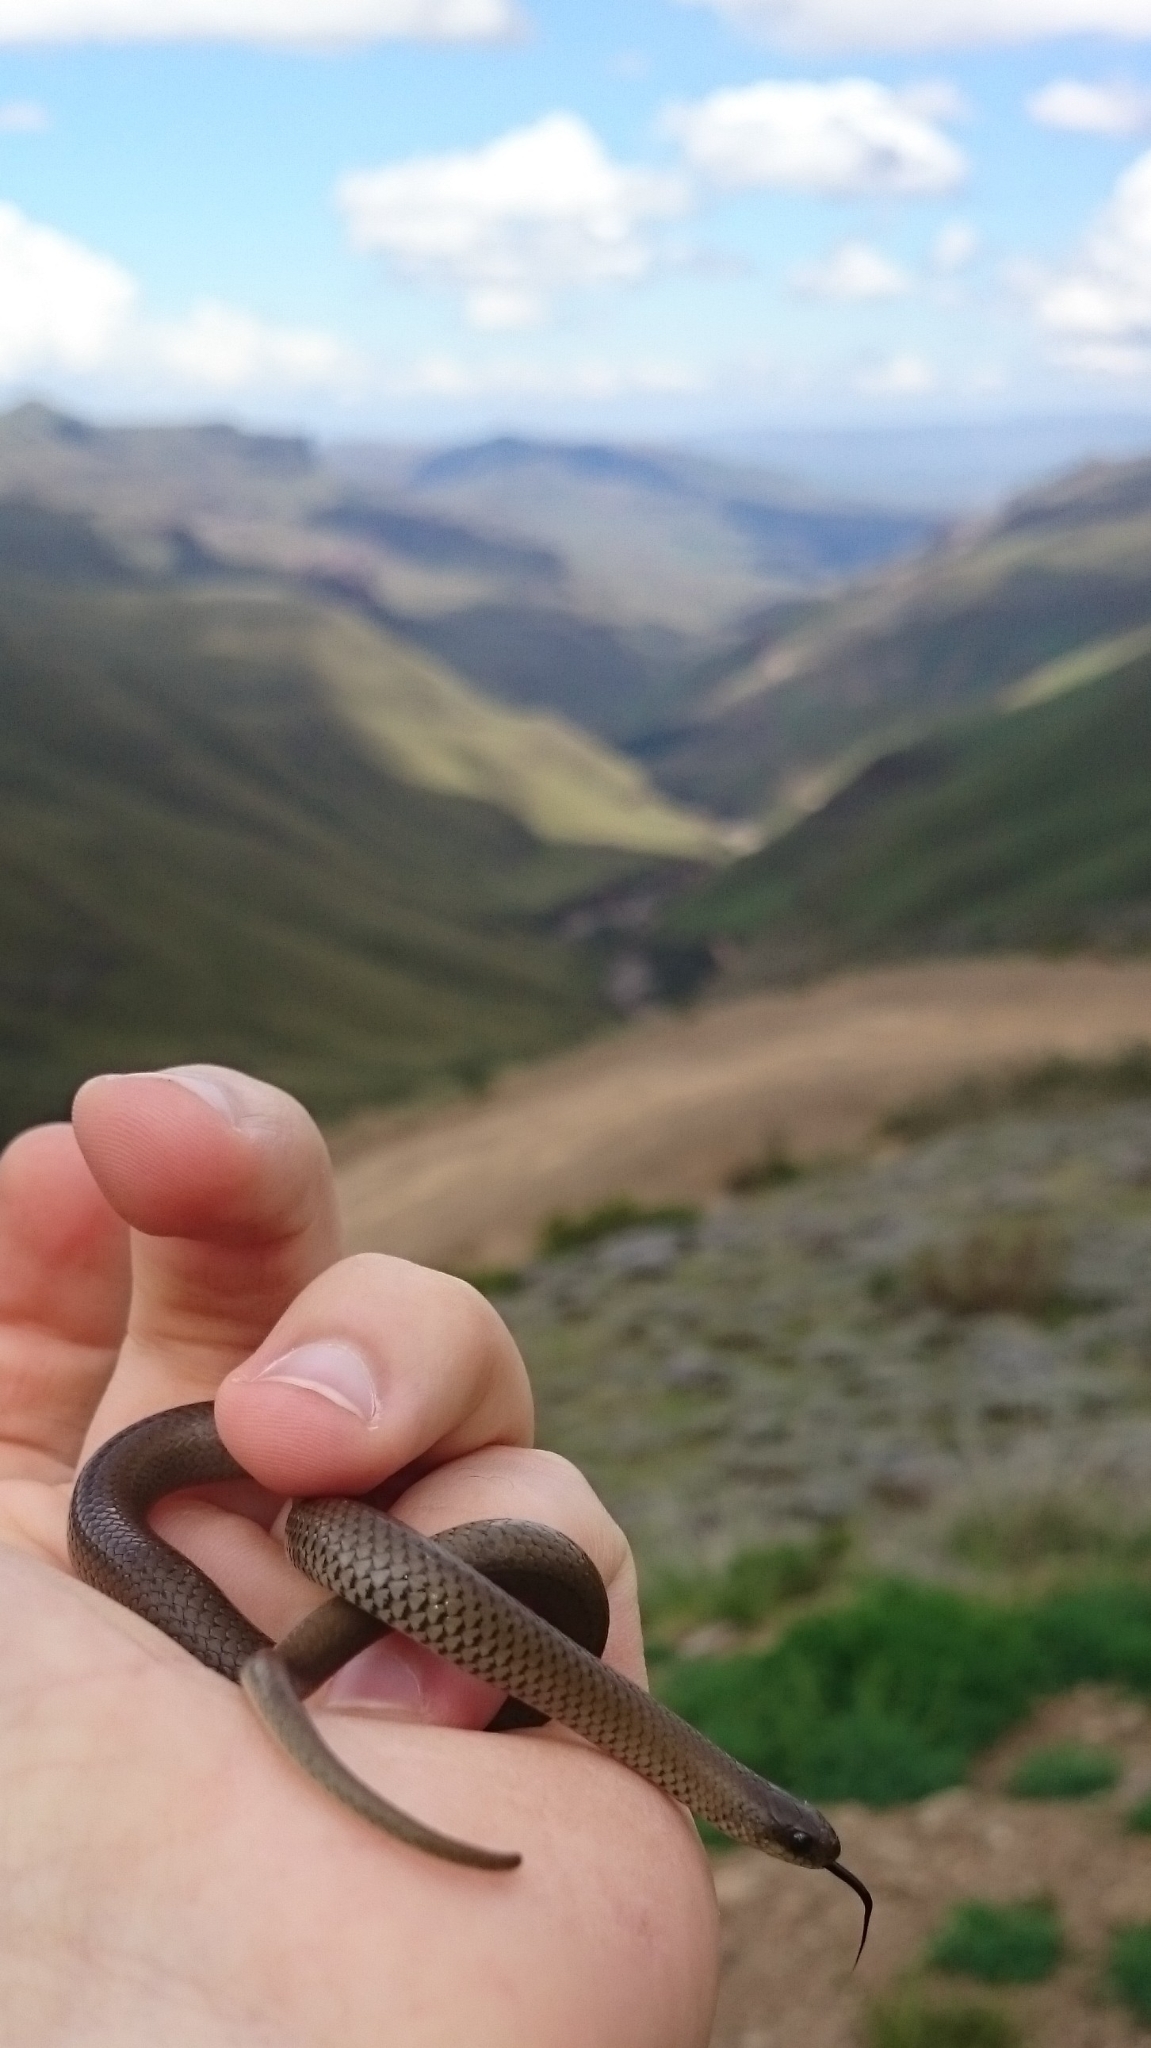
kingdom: Animalia
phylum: Chordata
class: Squamata
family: Pseudoxyrhophiidae
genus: Duberria
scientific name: Duberria lutrix
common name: Common slug eater
